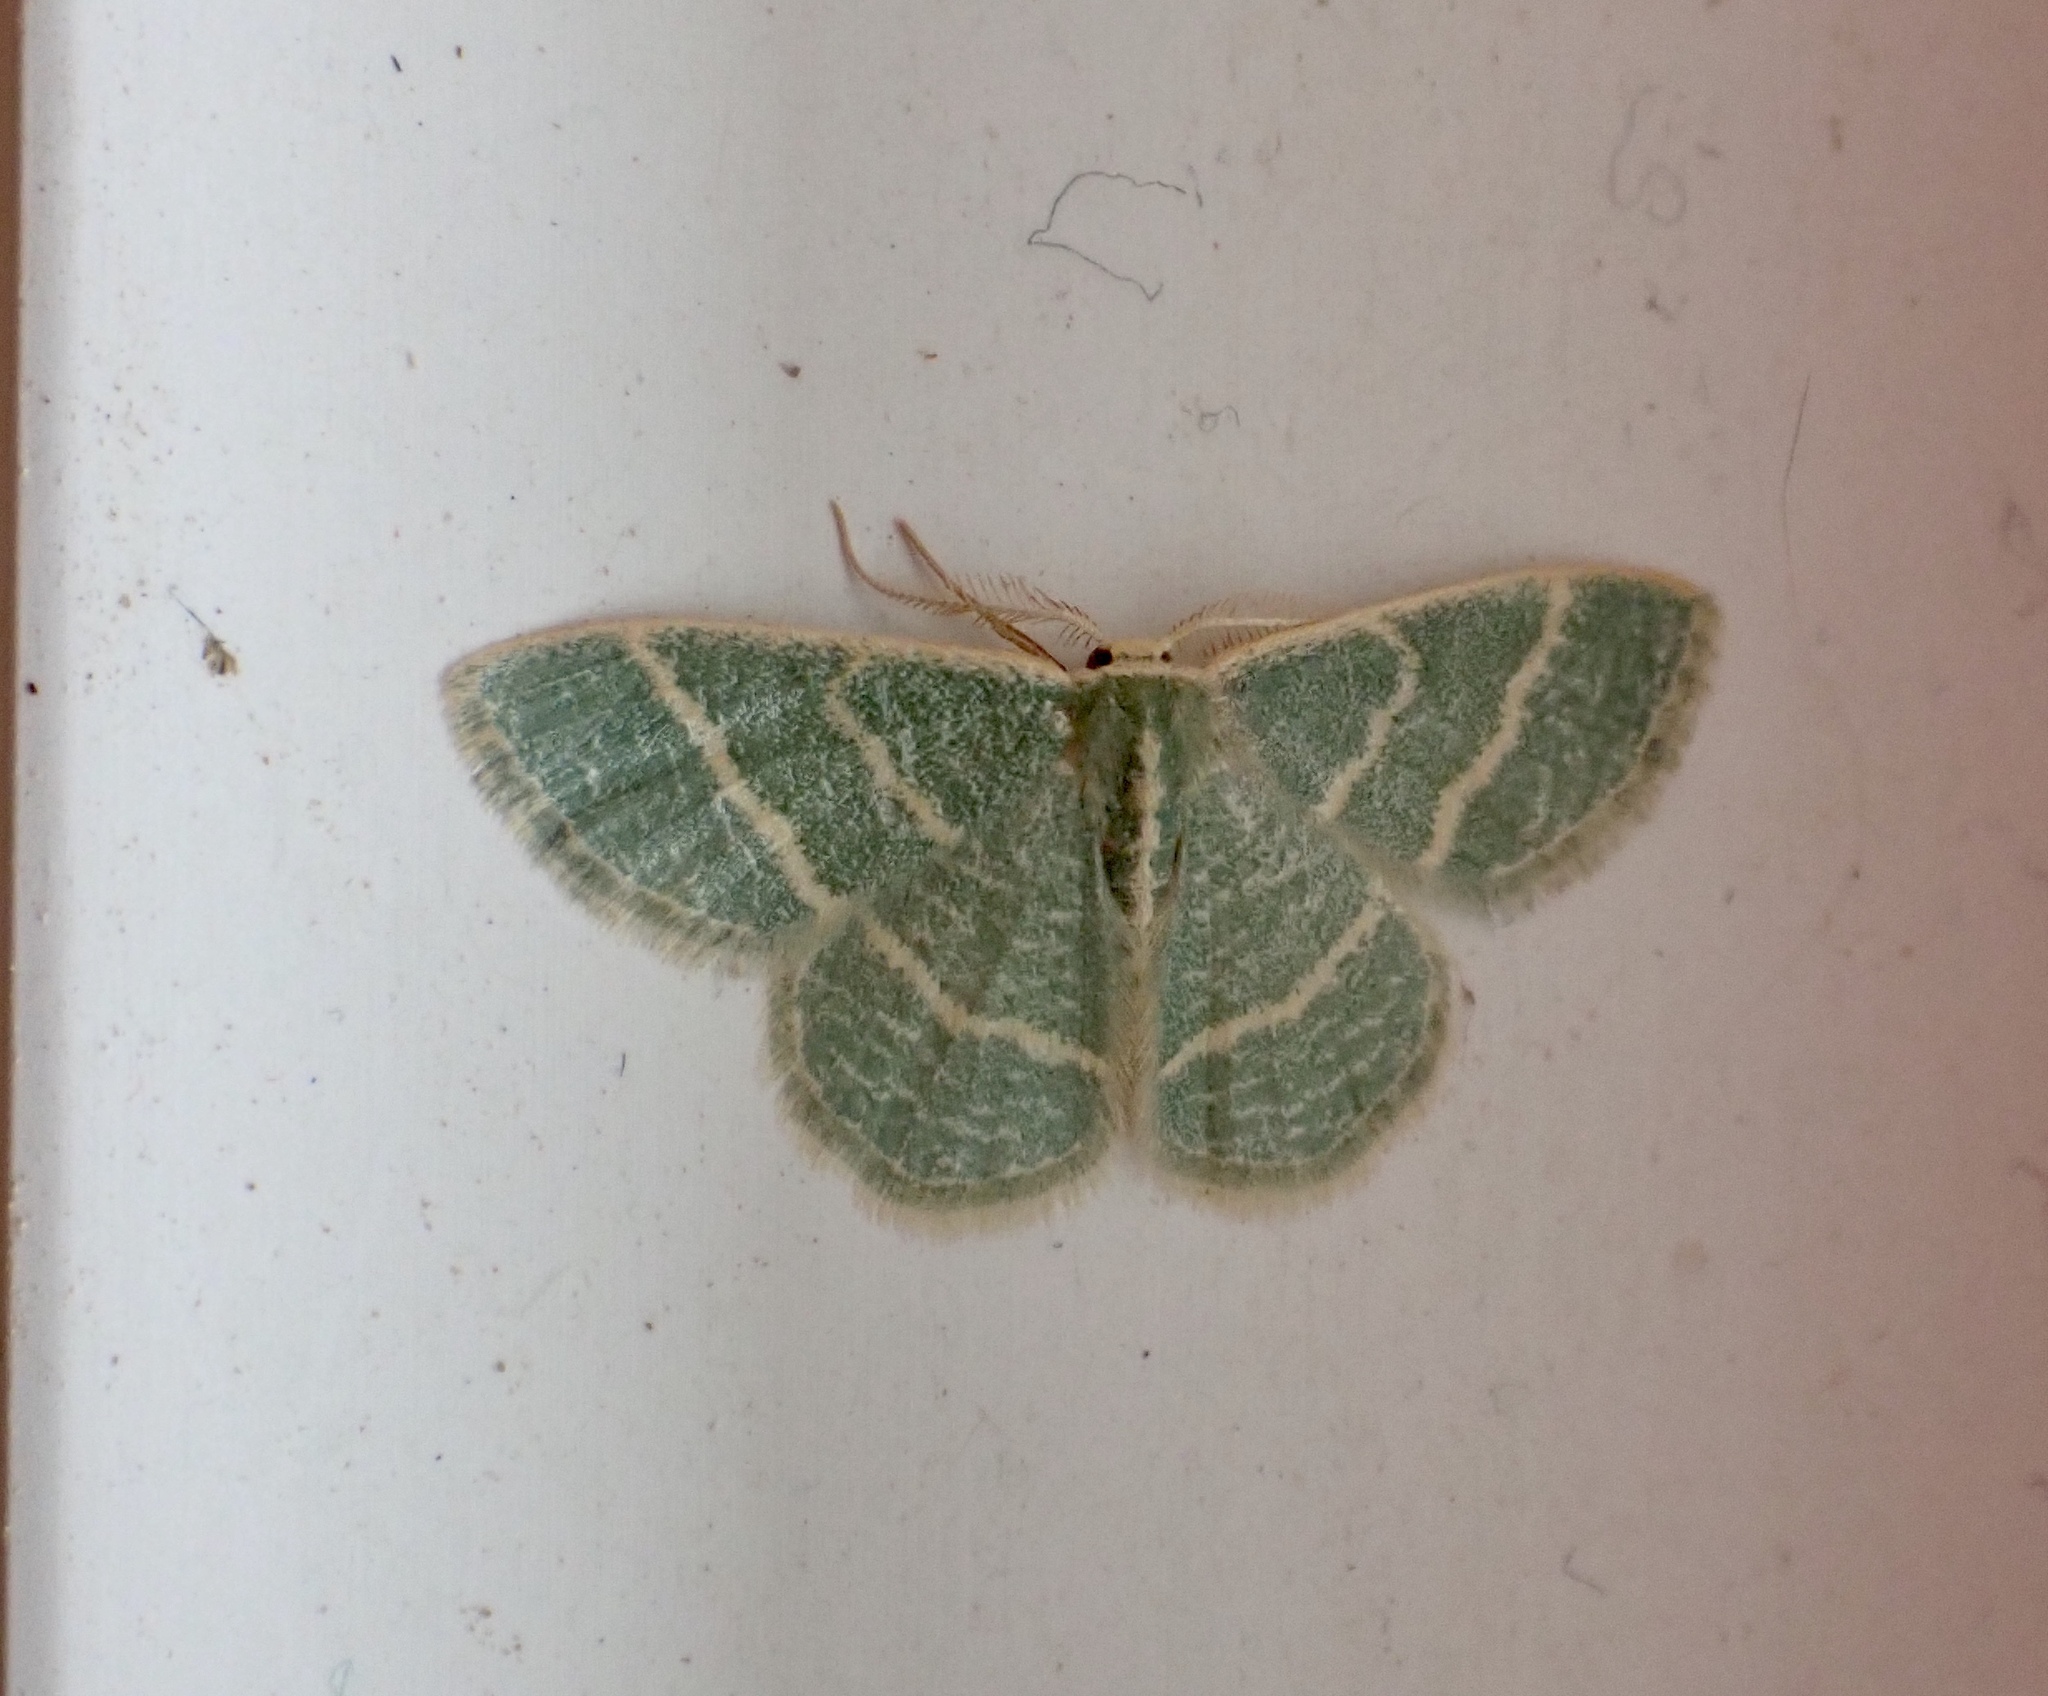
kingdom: Animalia
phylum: Arthropoda
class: Insecta
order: Lepidoptera
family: Geometridae
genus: Chlorochlamys
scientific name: Chlorochlamys chloroleucaria
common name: Blackberry looper
